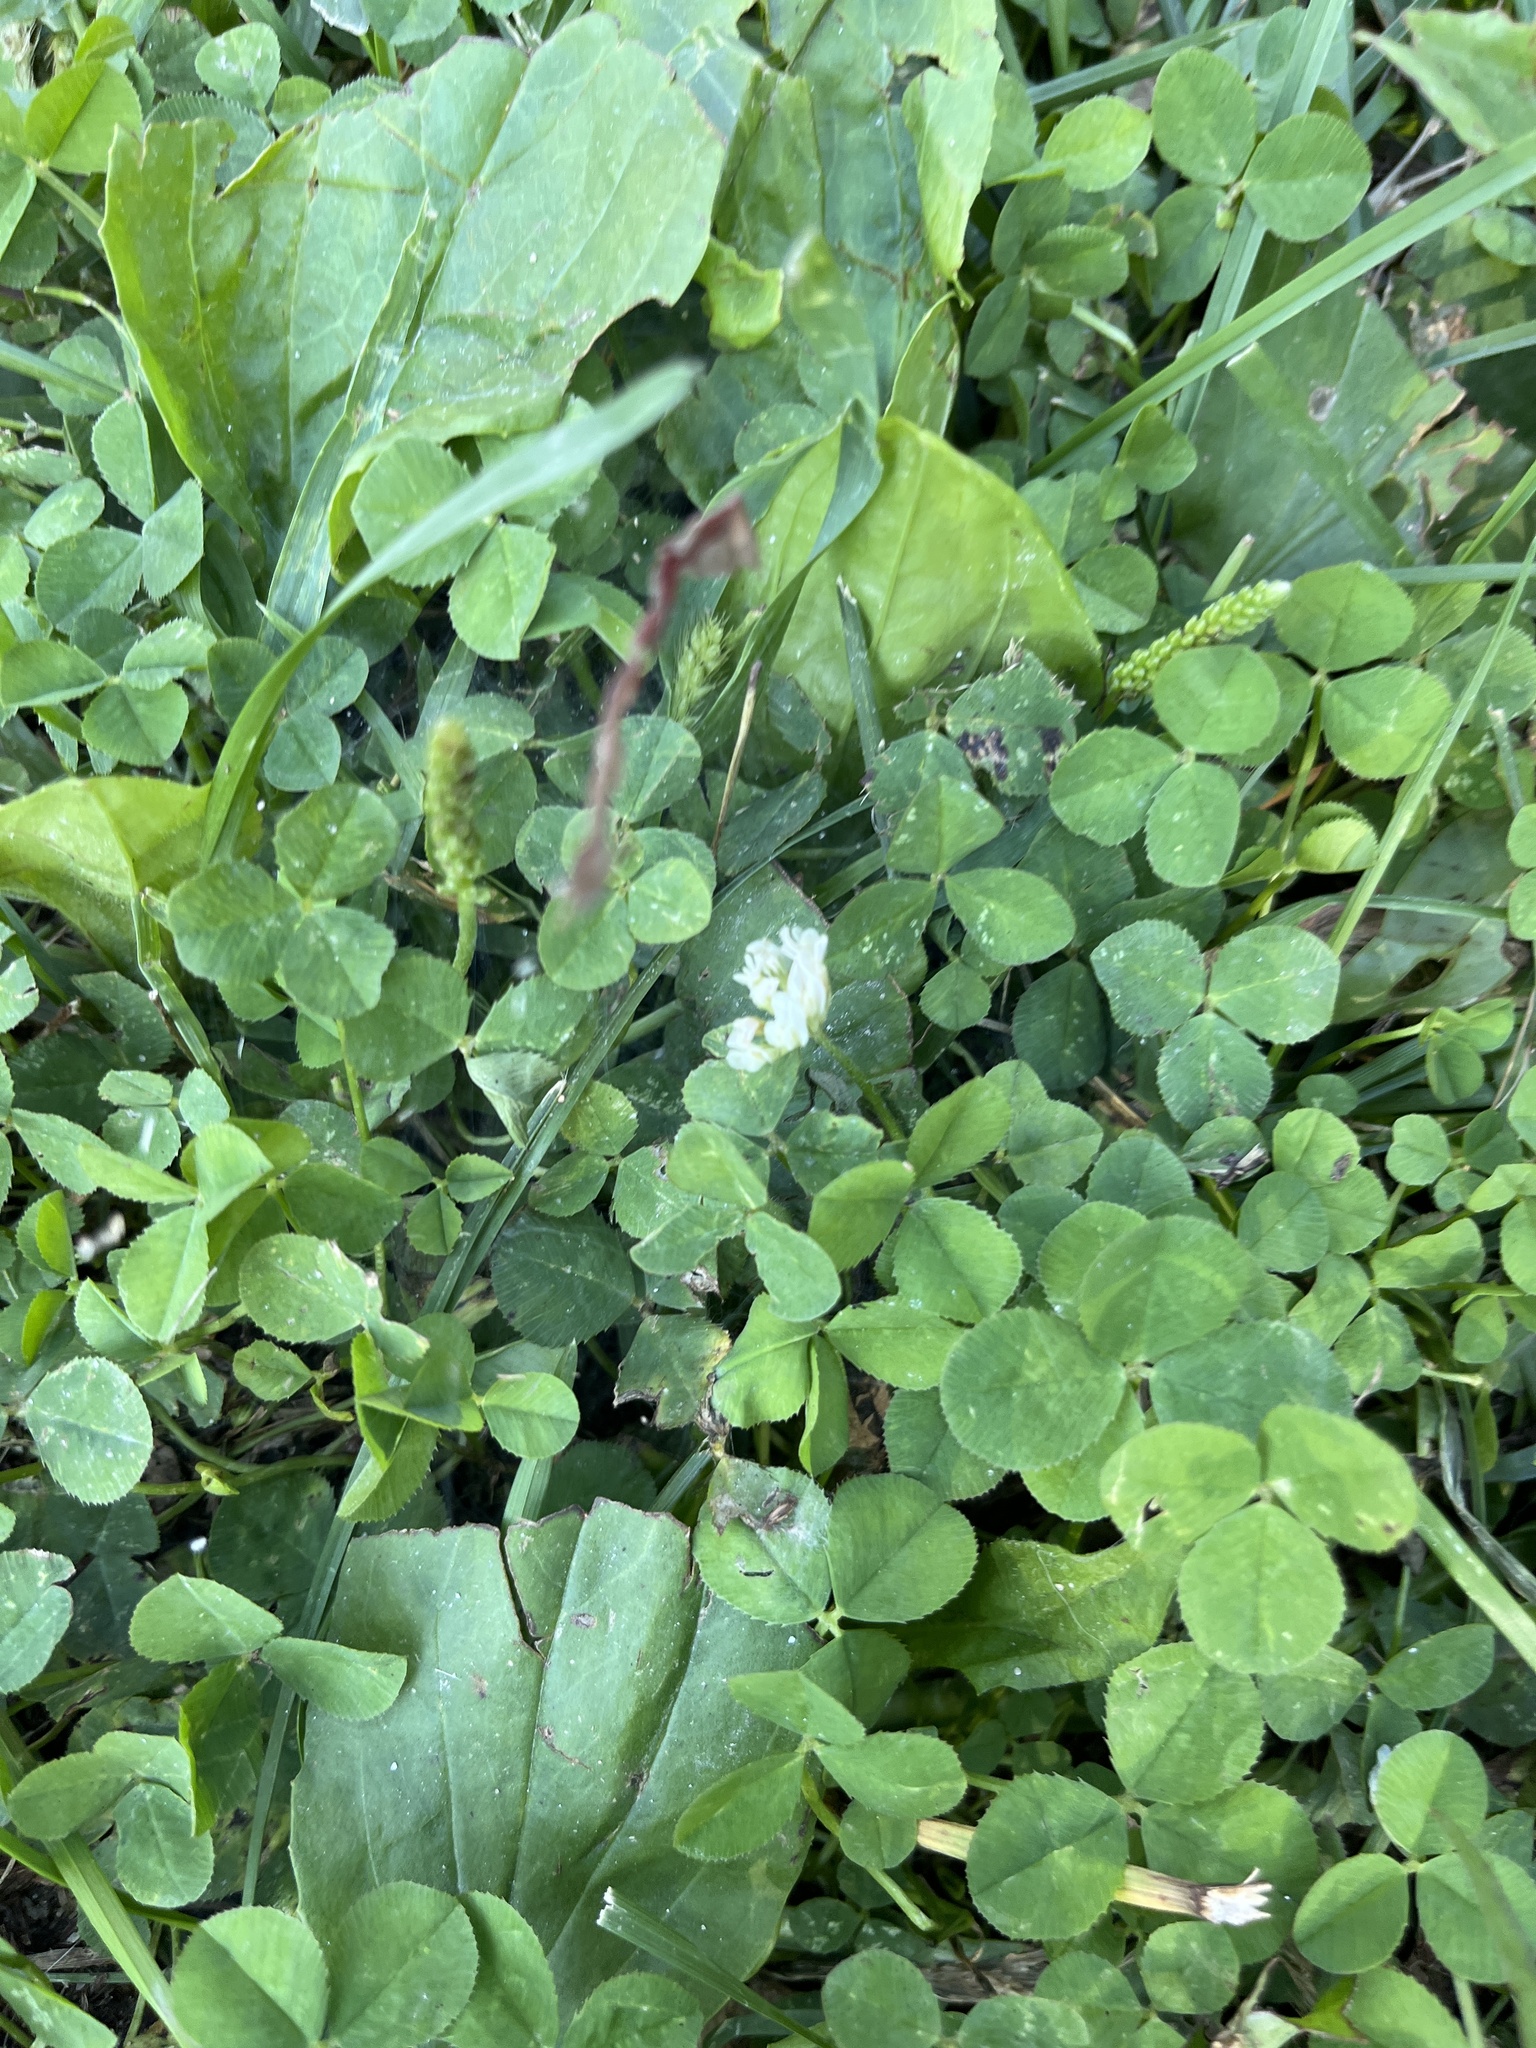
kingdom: Plantae
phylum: Tracheophyta
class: Magnoliopsida
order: Fabales
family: Fabaceae
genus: Trifolium
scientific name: Trifolium repens
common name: White clover
